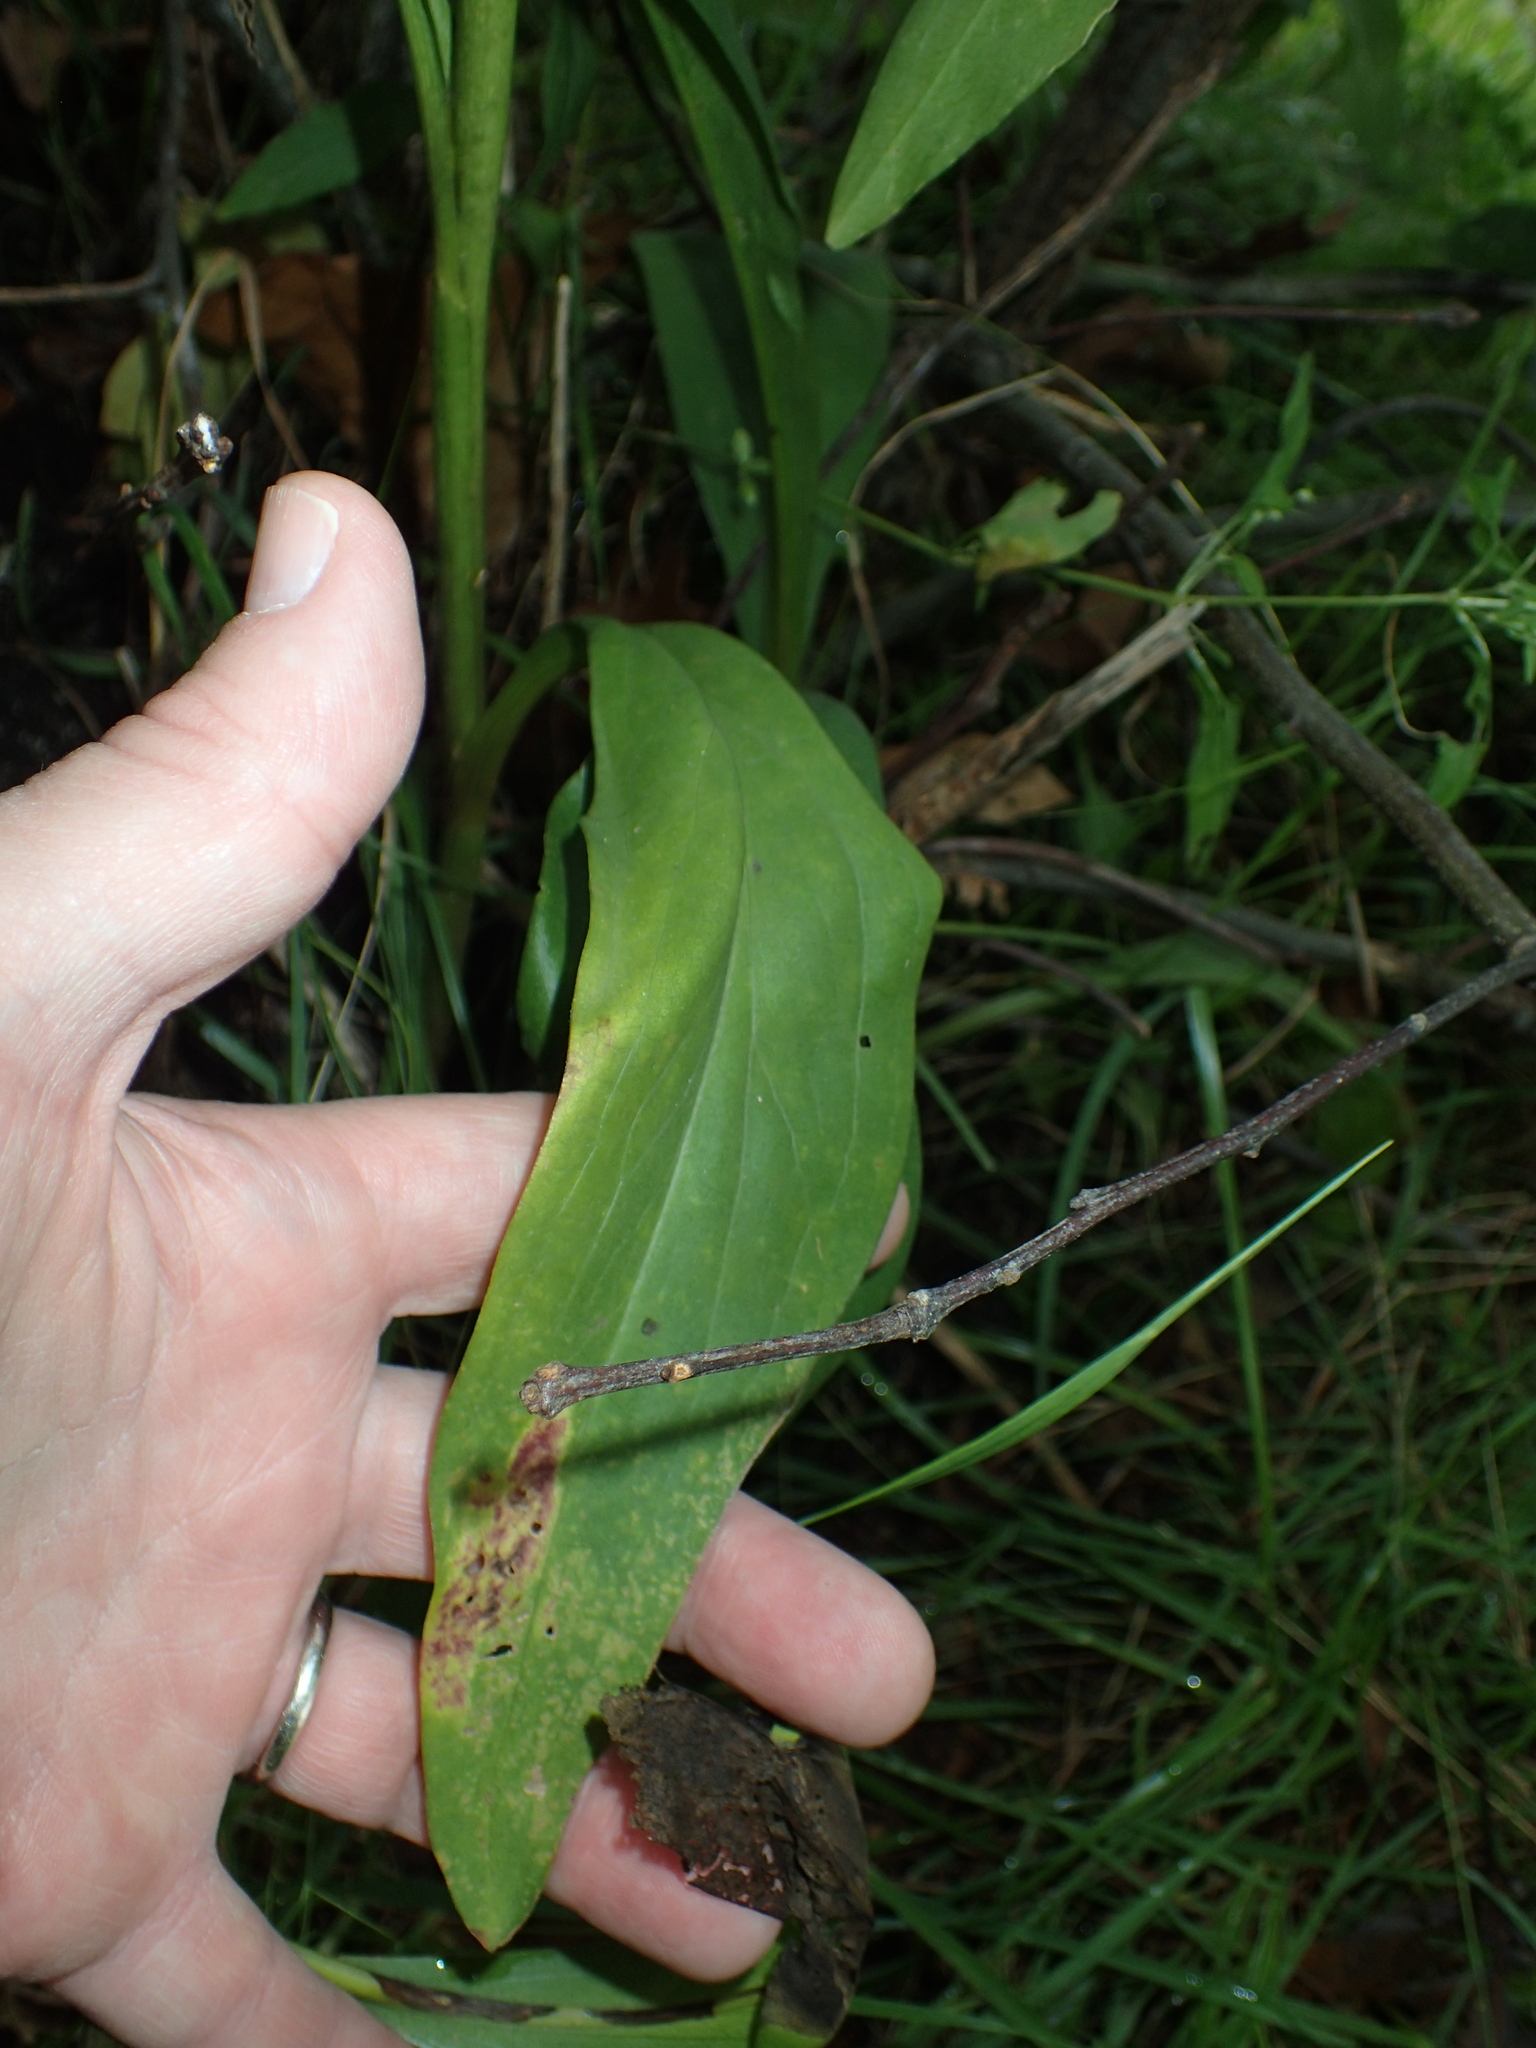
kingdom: Plantae
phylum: Tracheophyta
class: Magnoliopsida
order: Asterales
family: Asteraceae
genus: Solidago
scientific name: Solidago sempervirens
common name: Salt-marsh goldenrod
